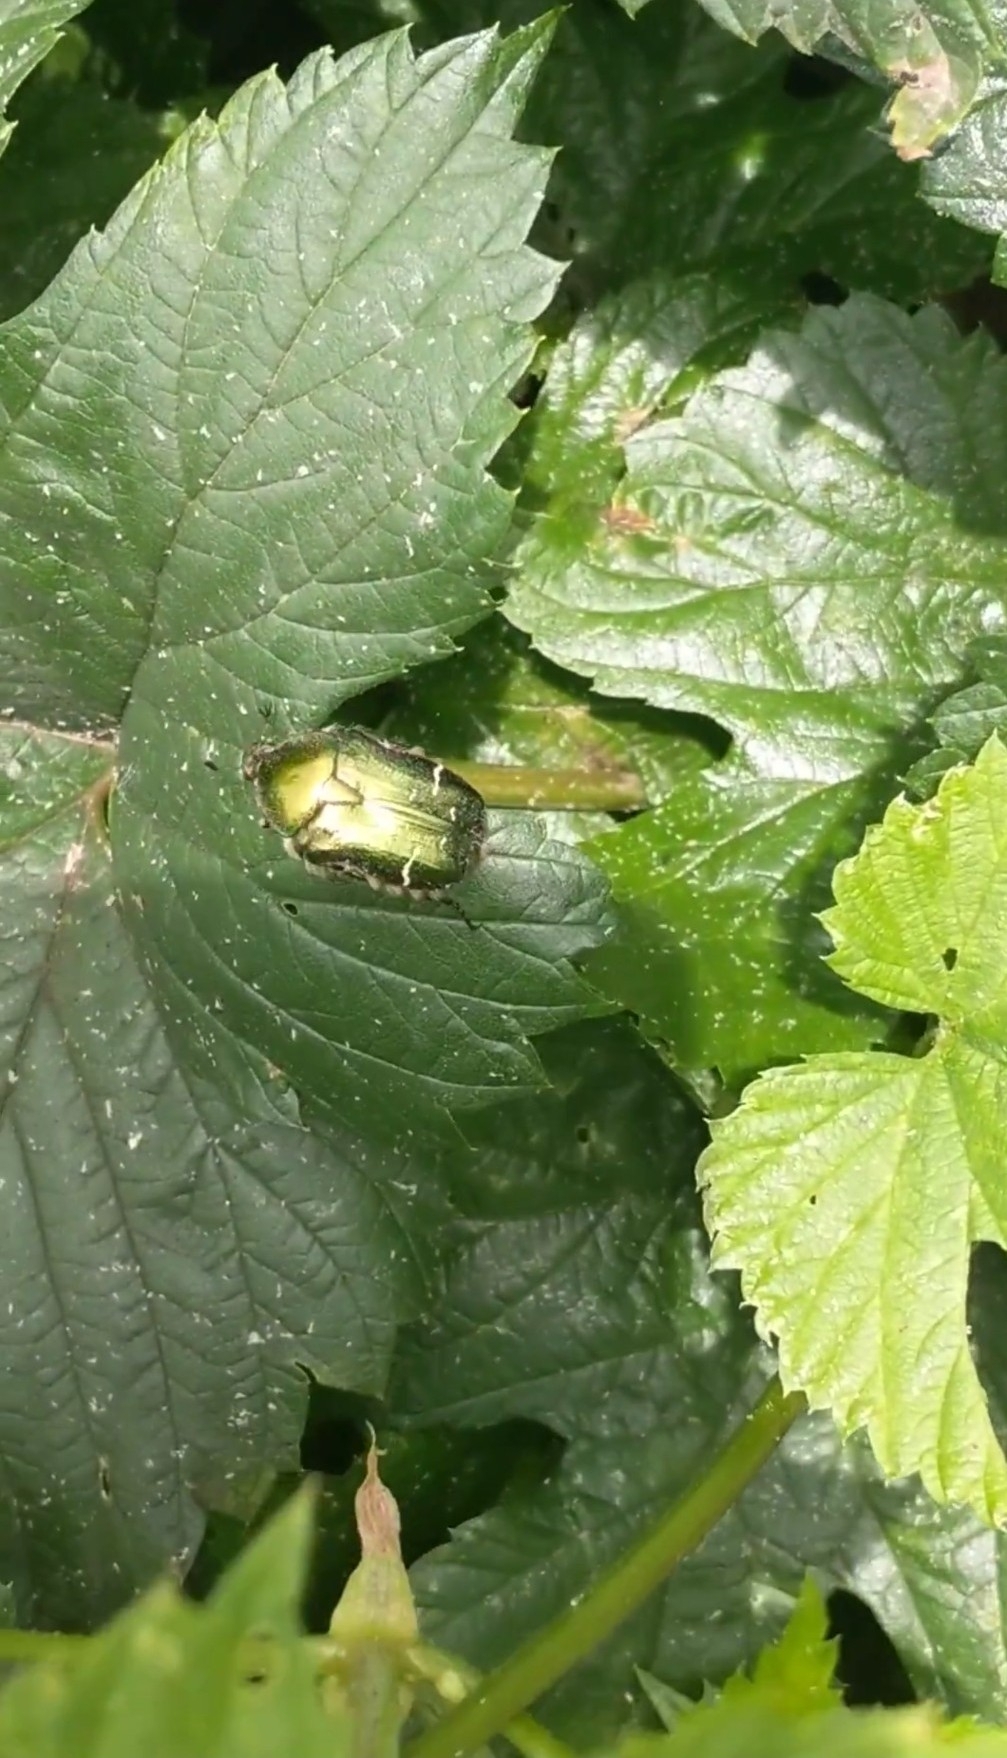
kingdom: Animalia
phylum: Arthropoda
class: Insecta
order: Coleoptera
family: Scarabaeidae
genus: Cetonia
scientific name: Cetonia aurata
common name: Rose chafer
